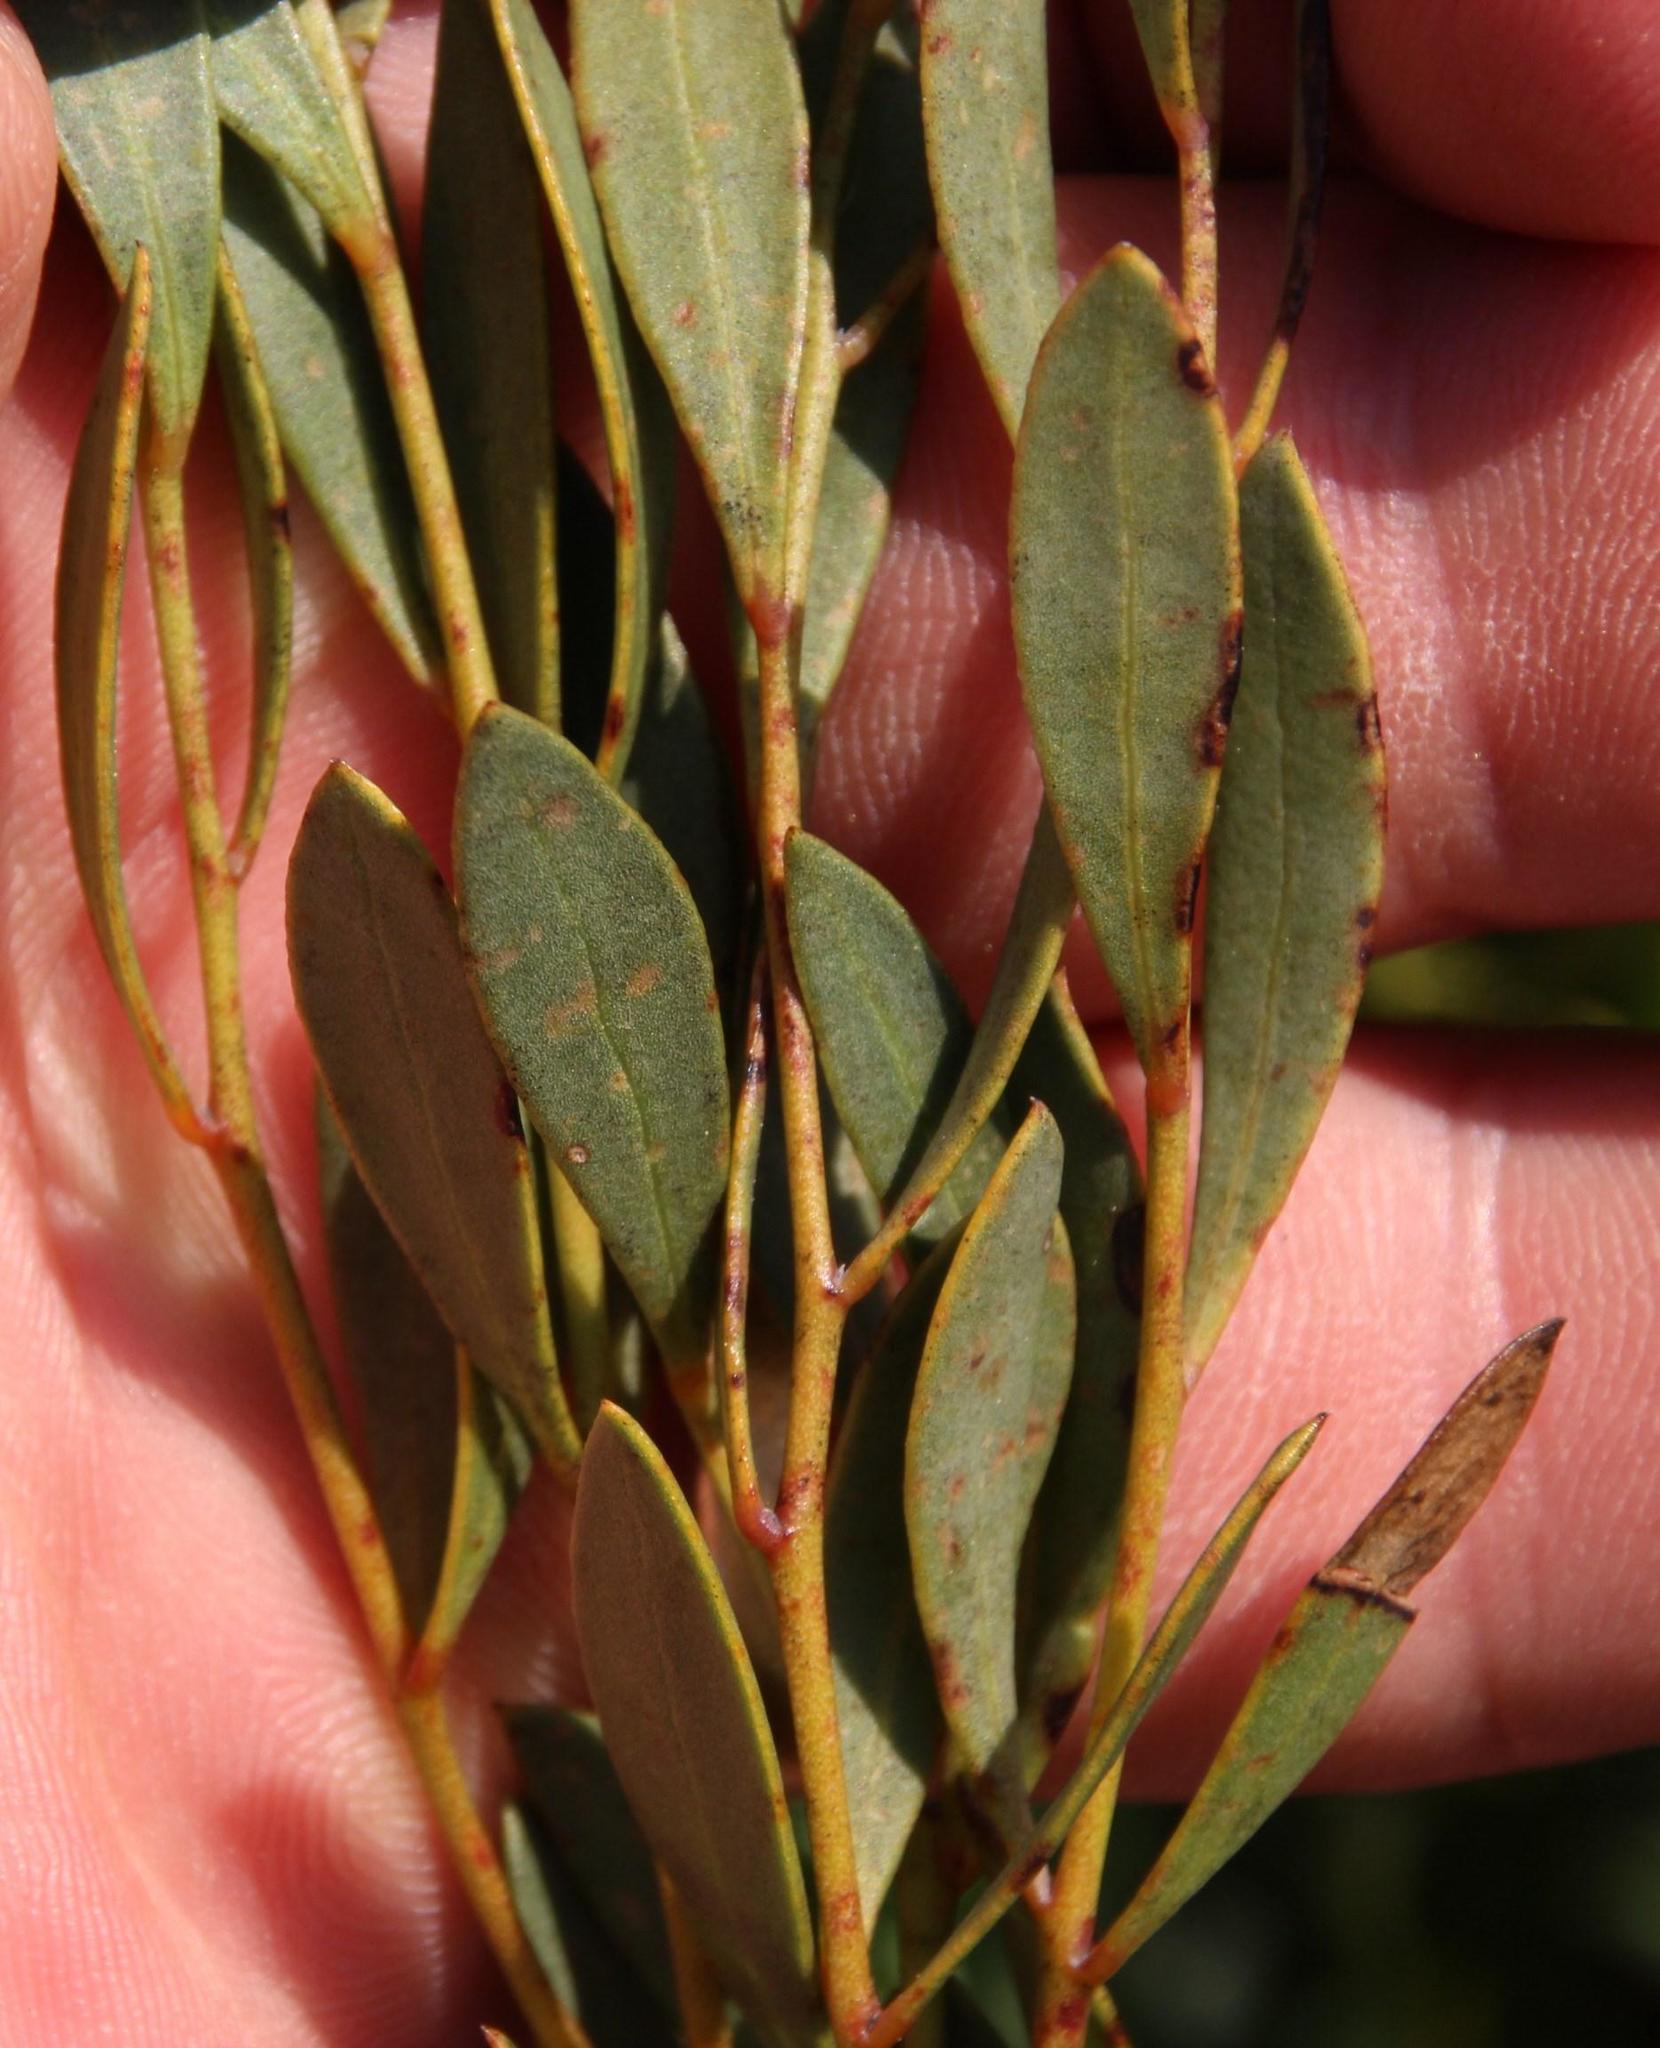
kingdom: Plantae
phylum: Tracheophyta
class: Magnoliopsida
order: Fabales
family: Fabaceae
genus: Rafnia
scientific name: Rafnia capensis
